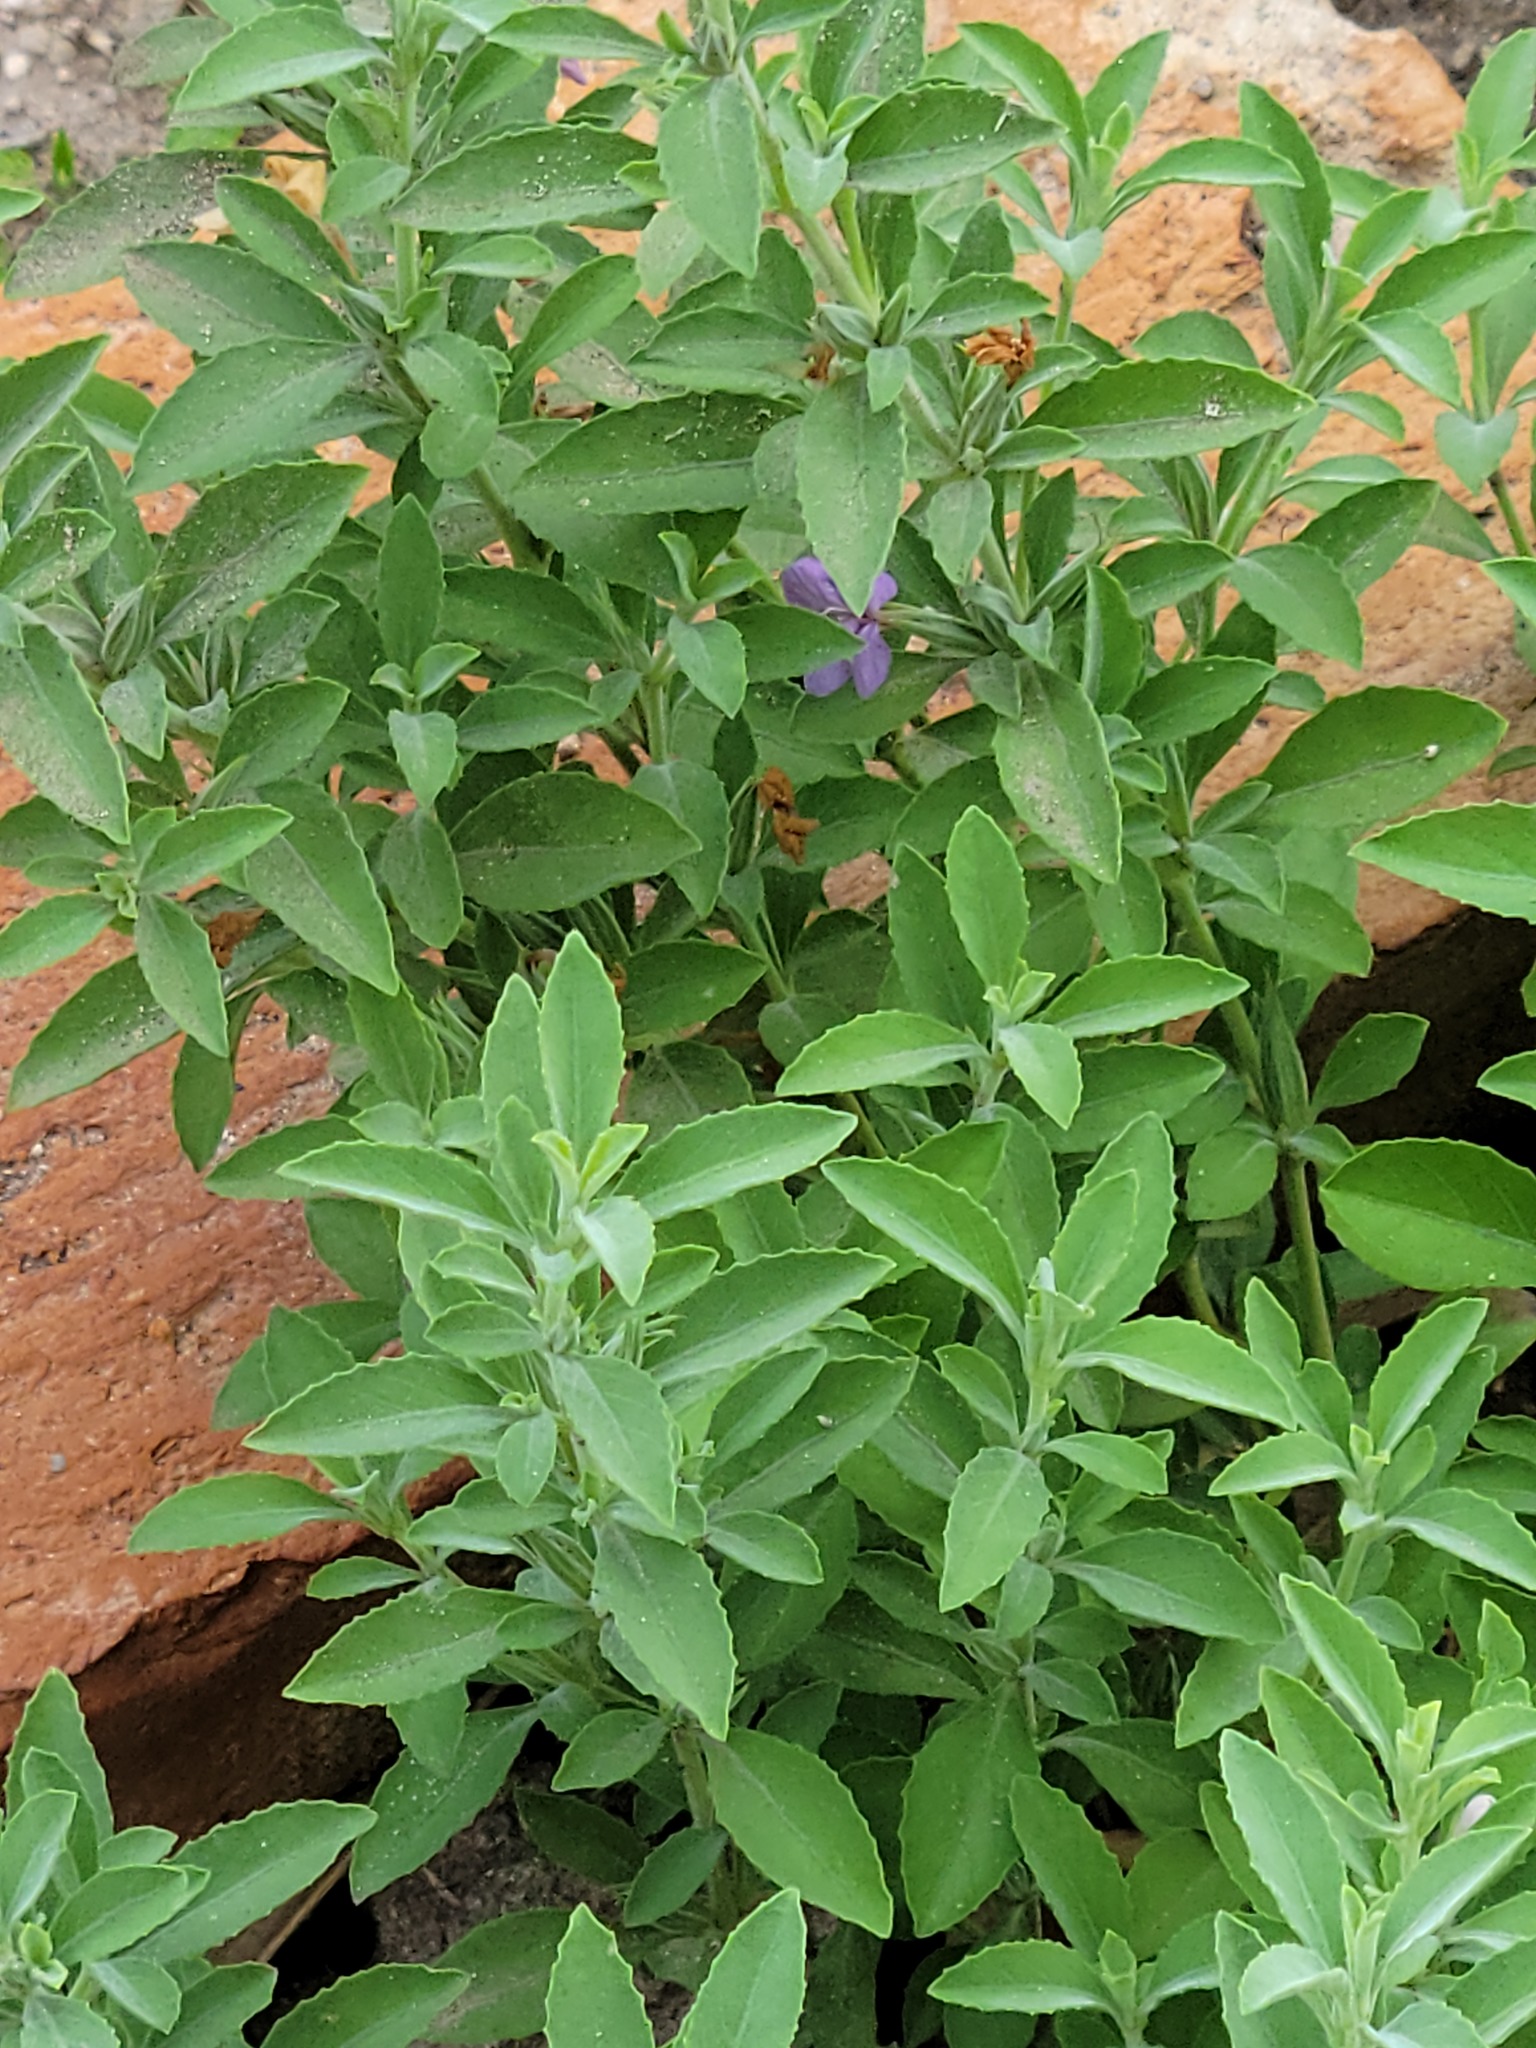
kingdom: Plantae
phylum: Tracheophyta
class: Magnoliopsida
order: Lamiales
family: Acanthaceae
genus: Dyschoriste
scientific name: Dyschoriste crenulata
